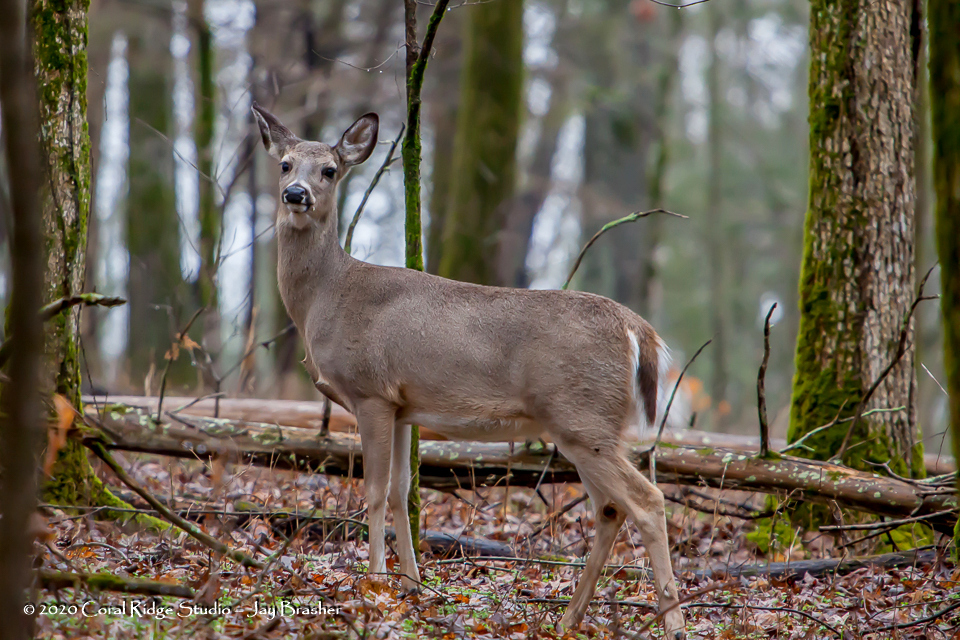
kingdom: Animalia
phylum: Chordata
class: Mammalia
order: Artiodactyla
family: Cervidae
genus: Odocoileus
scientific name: Odocoileus virginianus
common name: White-tailed deer
